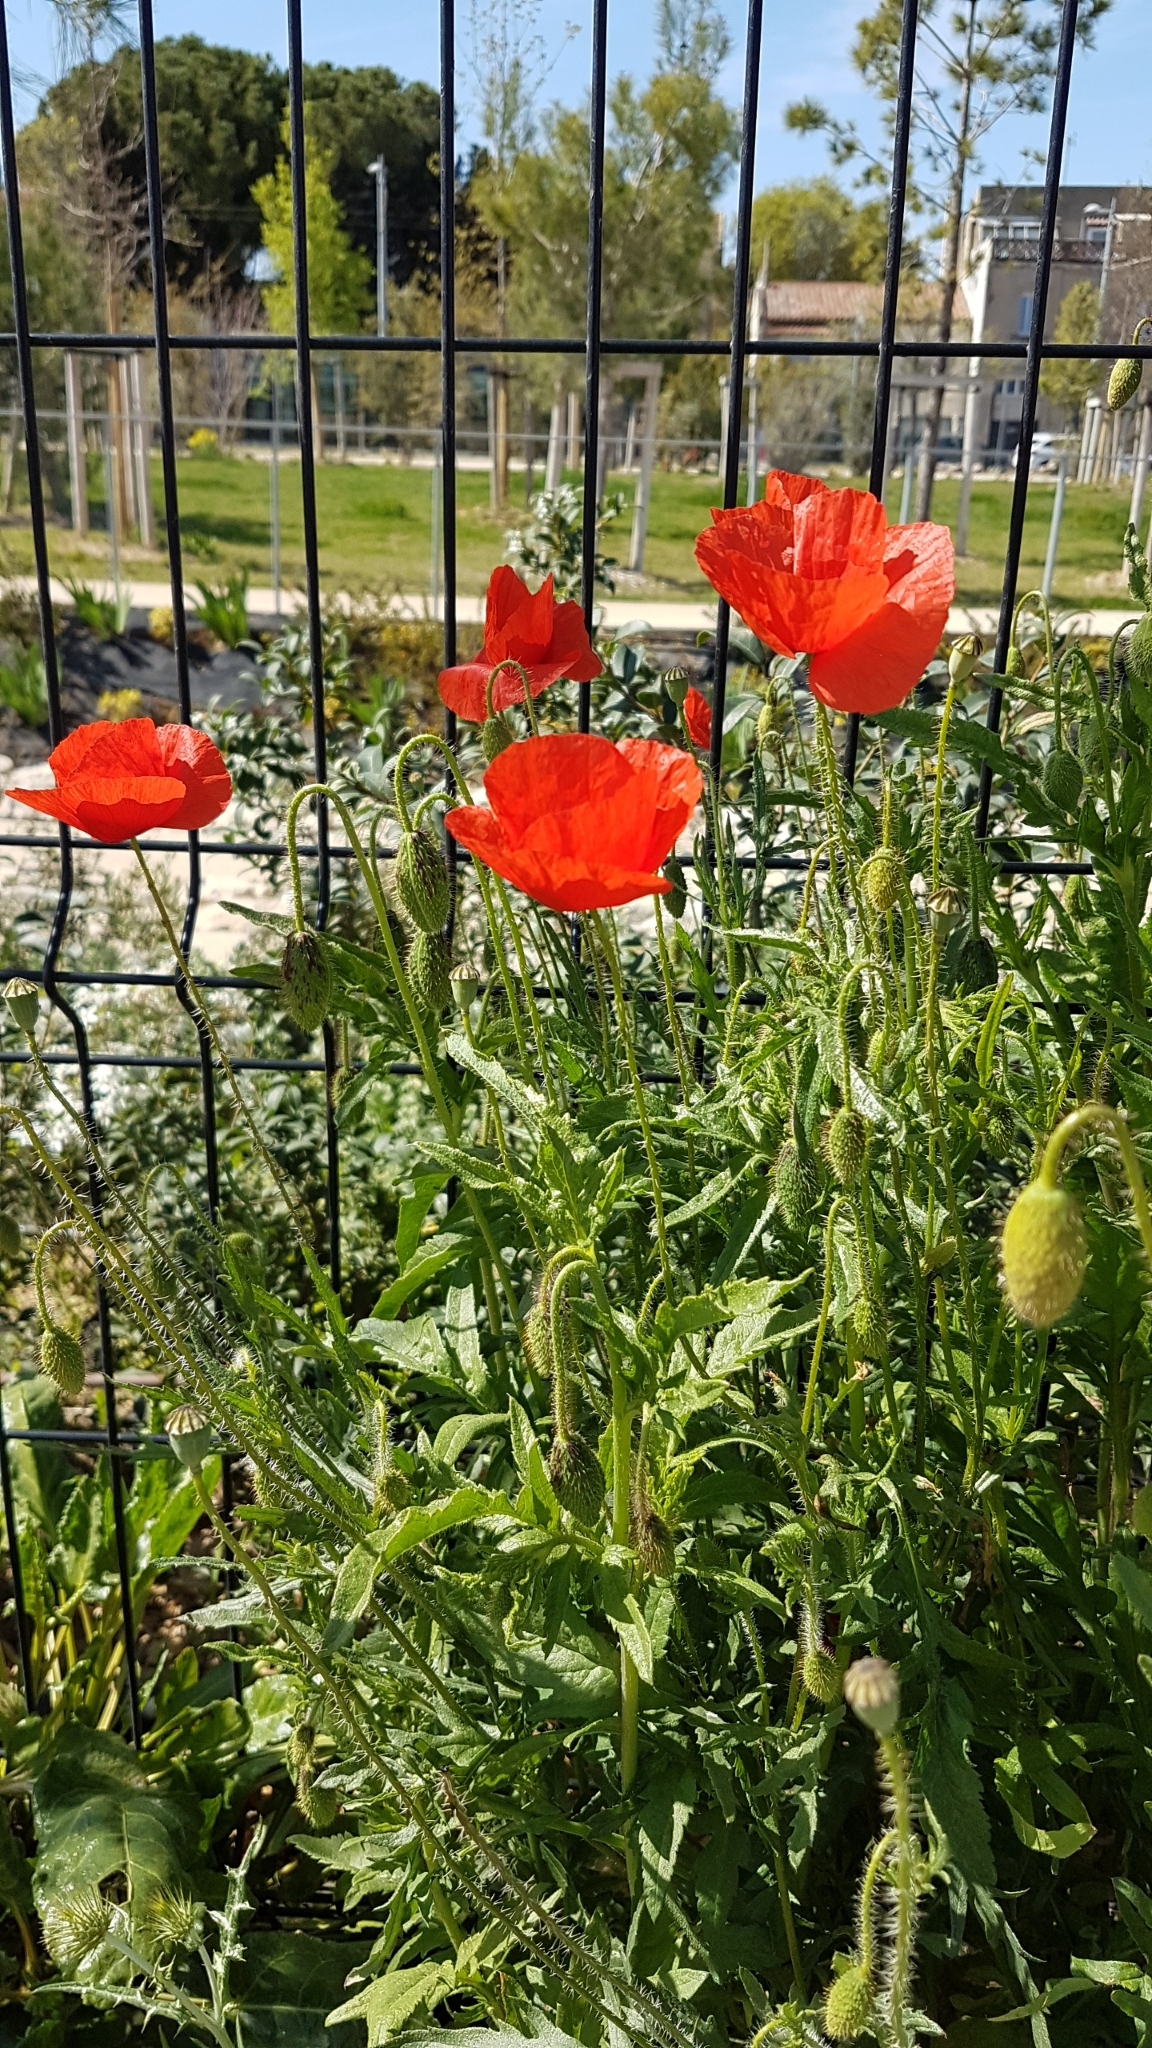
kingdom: Plantae
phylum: Tracheophyta
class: Magnoliopsida
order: Ranunculales
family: Papaveraceae
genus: Papaver
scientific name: Papaver rhoeas
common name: Corn poppy
